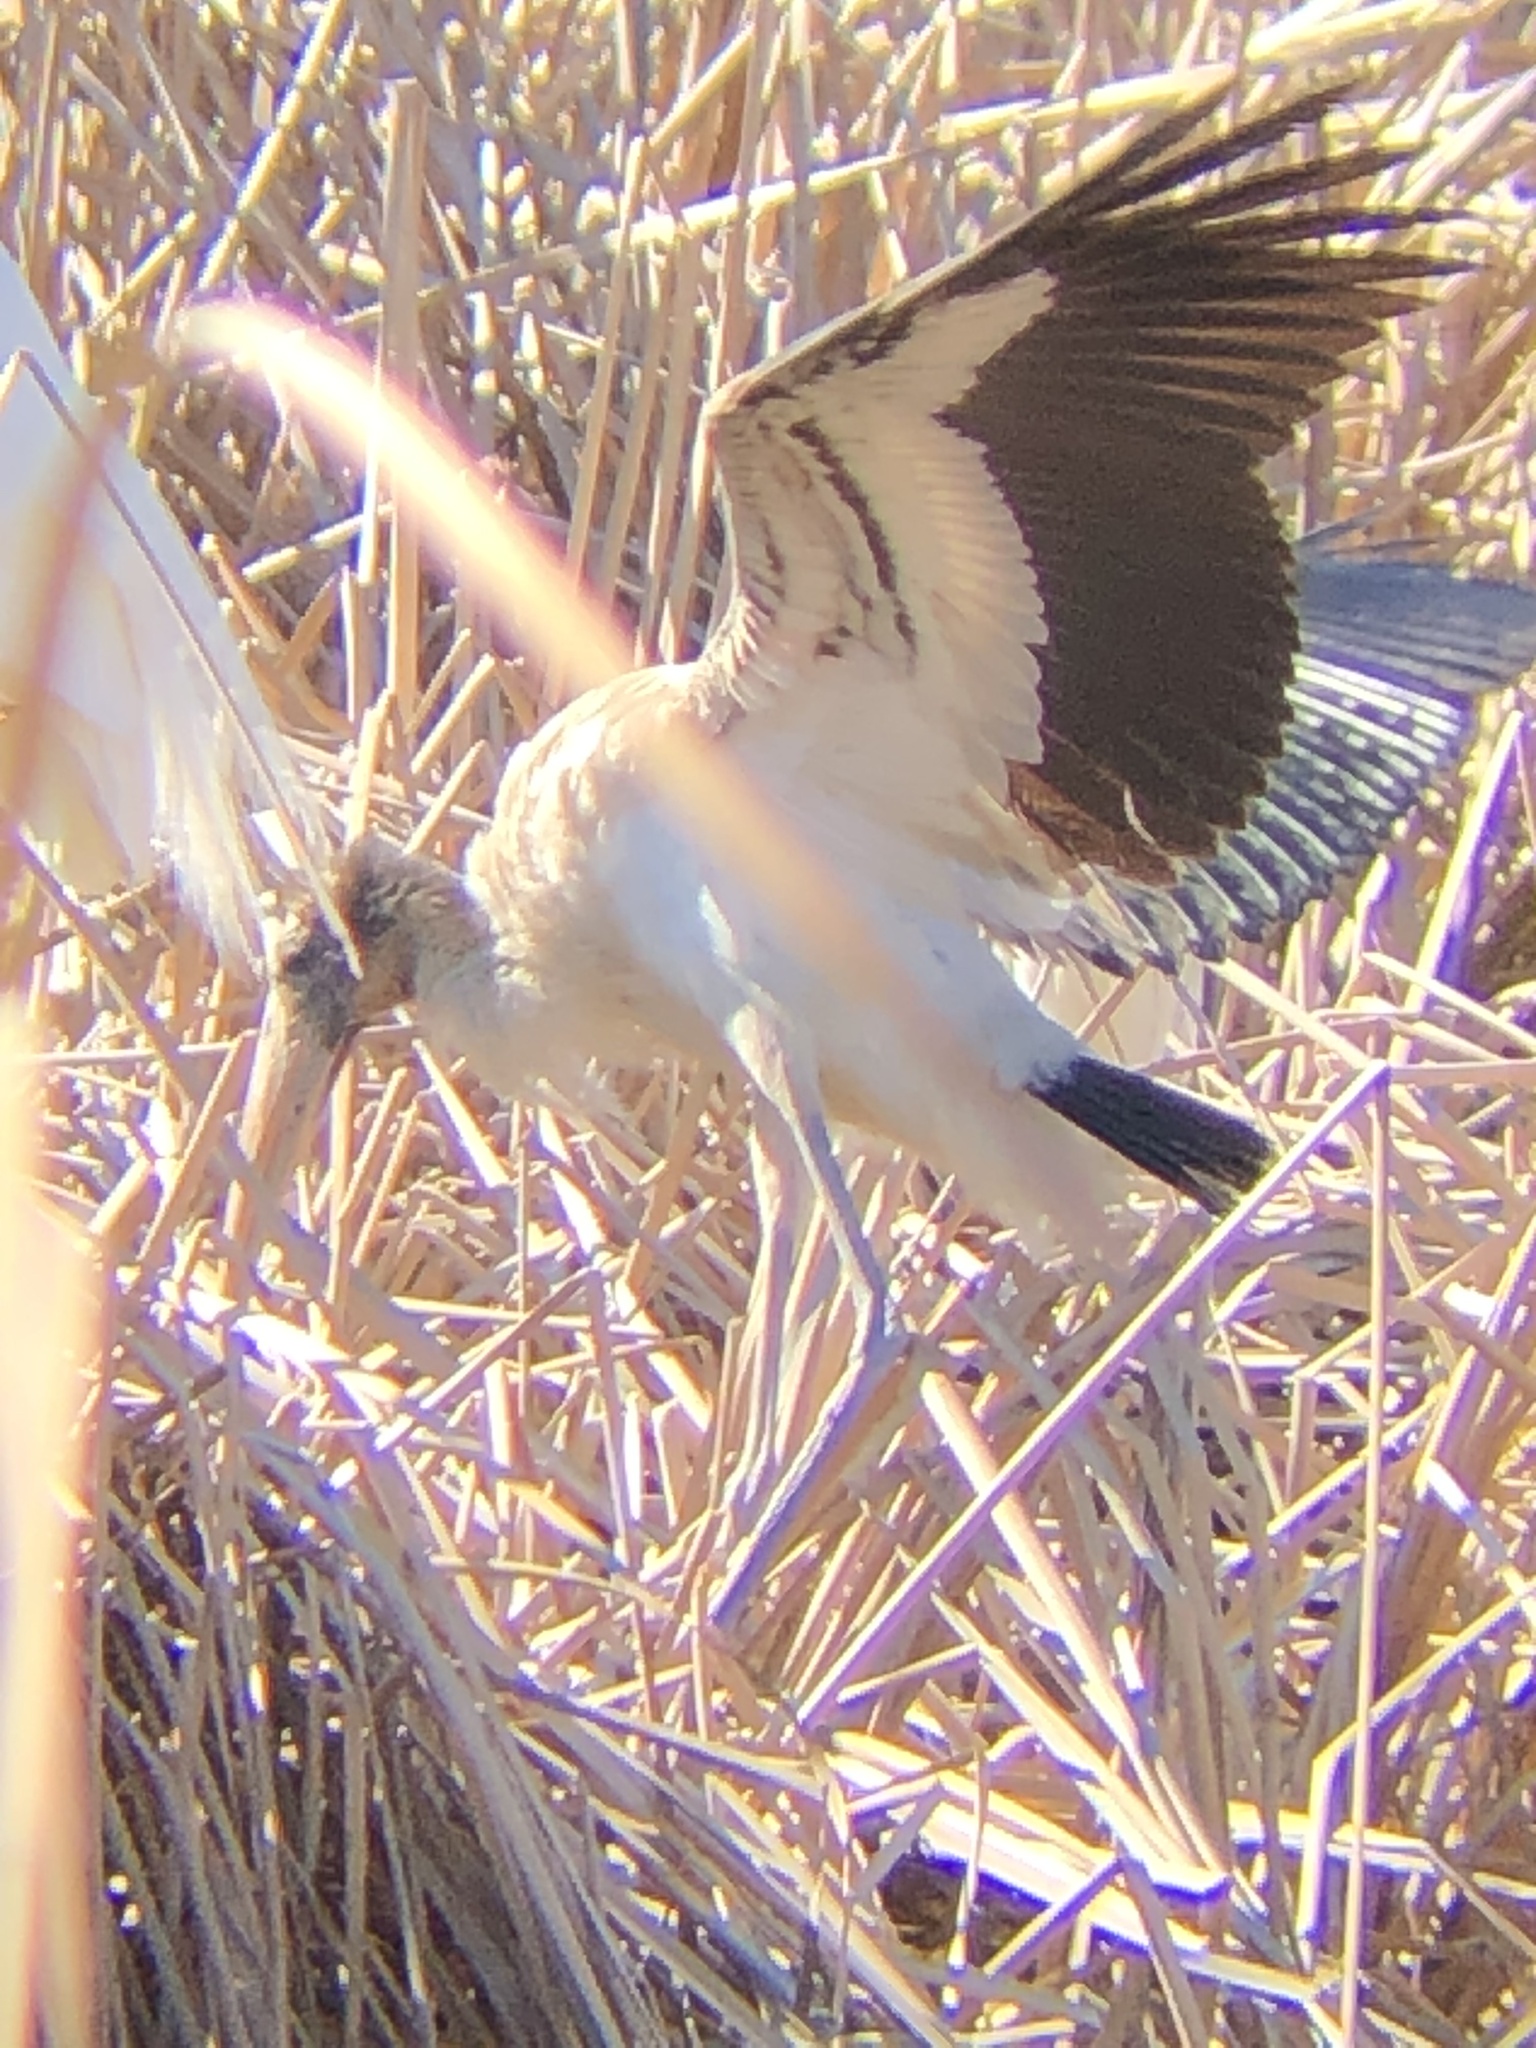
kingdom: Animalia
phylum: Chordata
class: Aves
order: Ciconiiformes
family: Ciconiidae
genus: Mycteria
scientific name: Mycteria americana
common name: Wood stork
